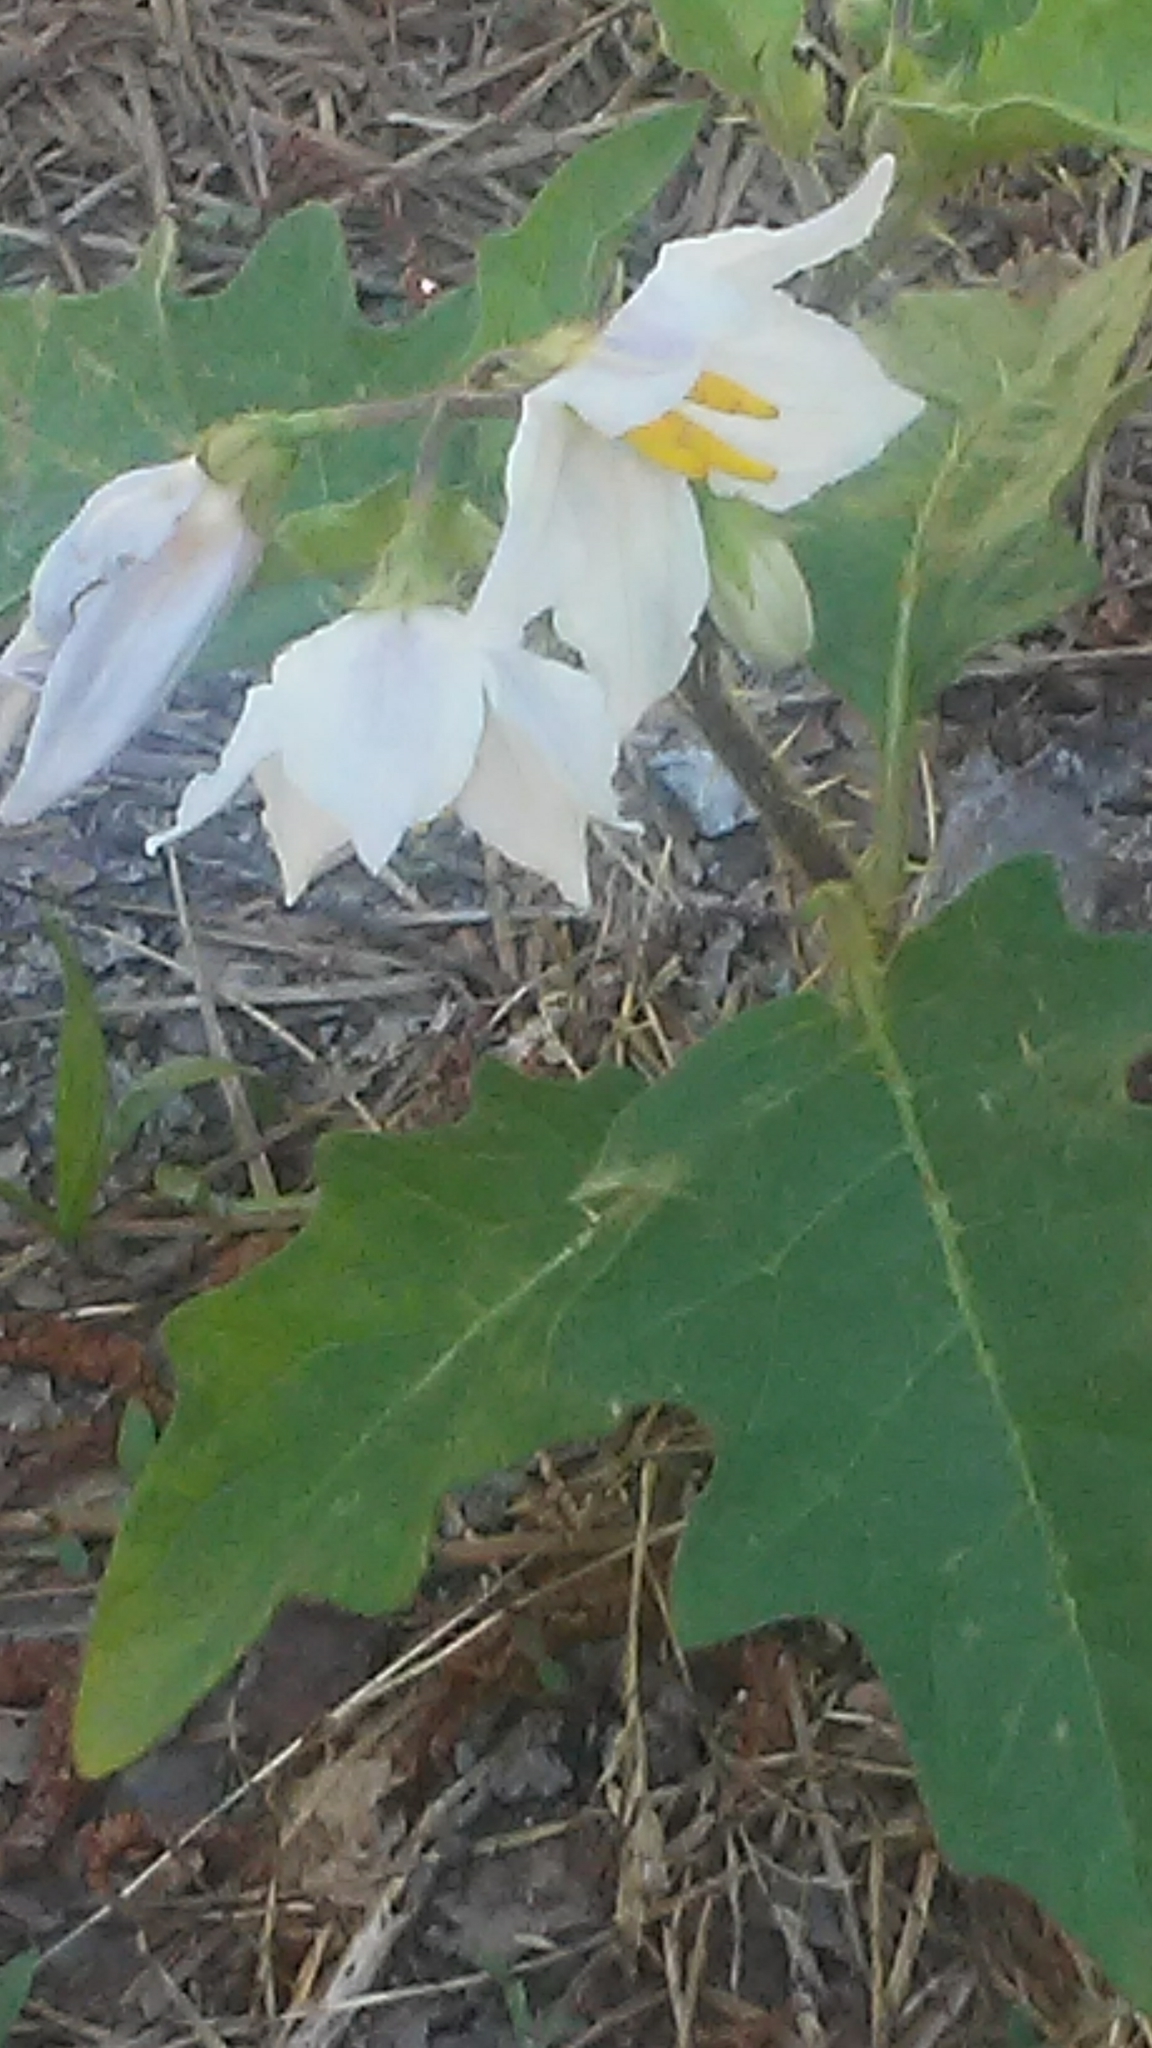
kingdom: Plantae
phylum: Tracheophyta
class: Magnoliopsida
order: Solanales
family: Solanaceae
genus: Solanum
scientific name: Solanum carolinense
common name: Horse-nettle
